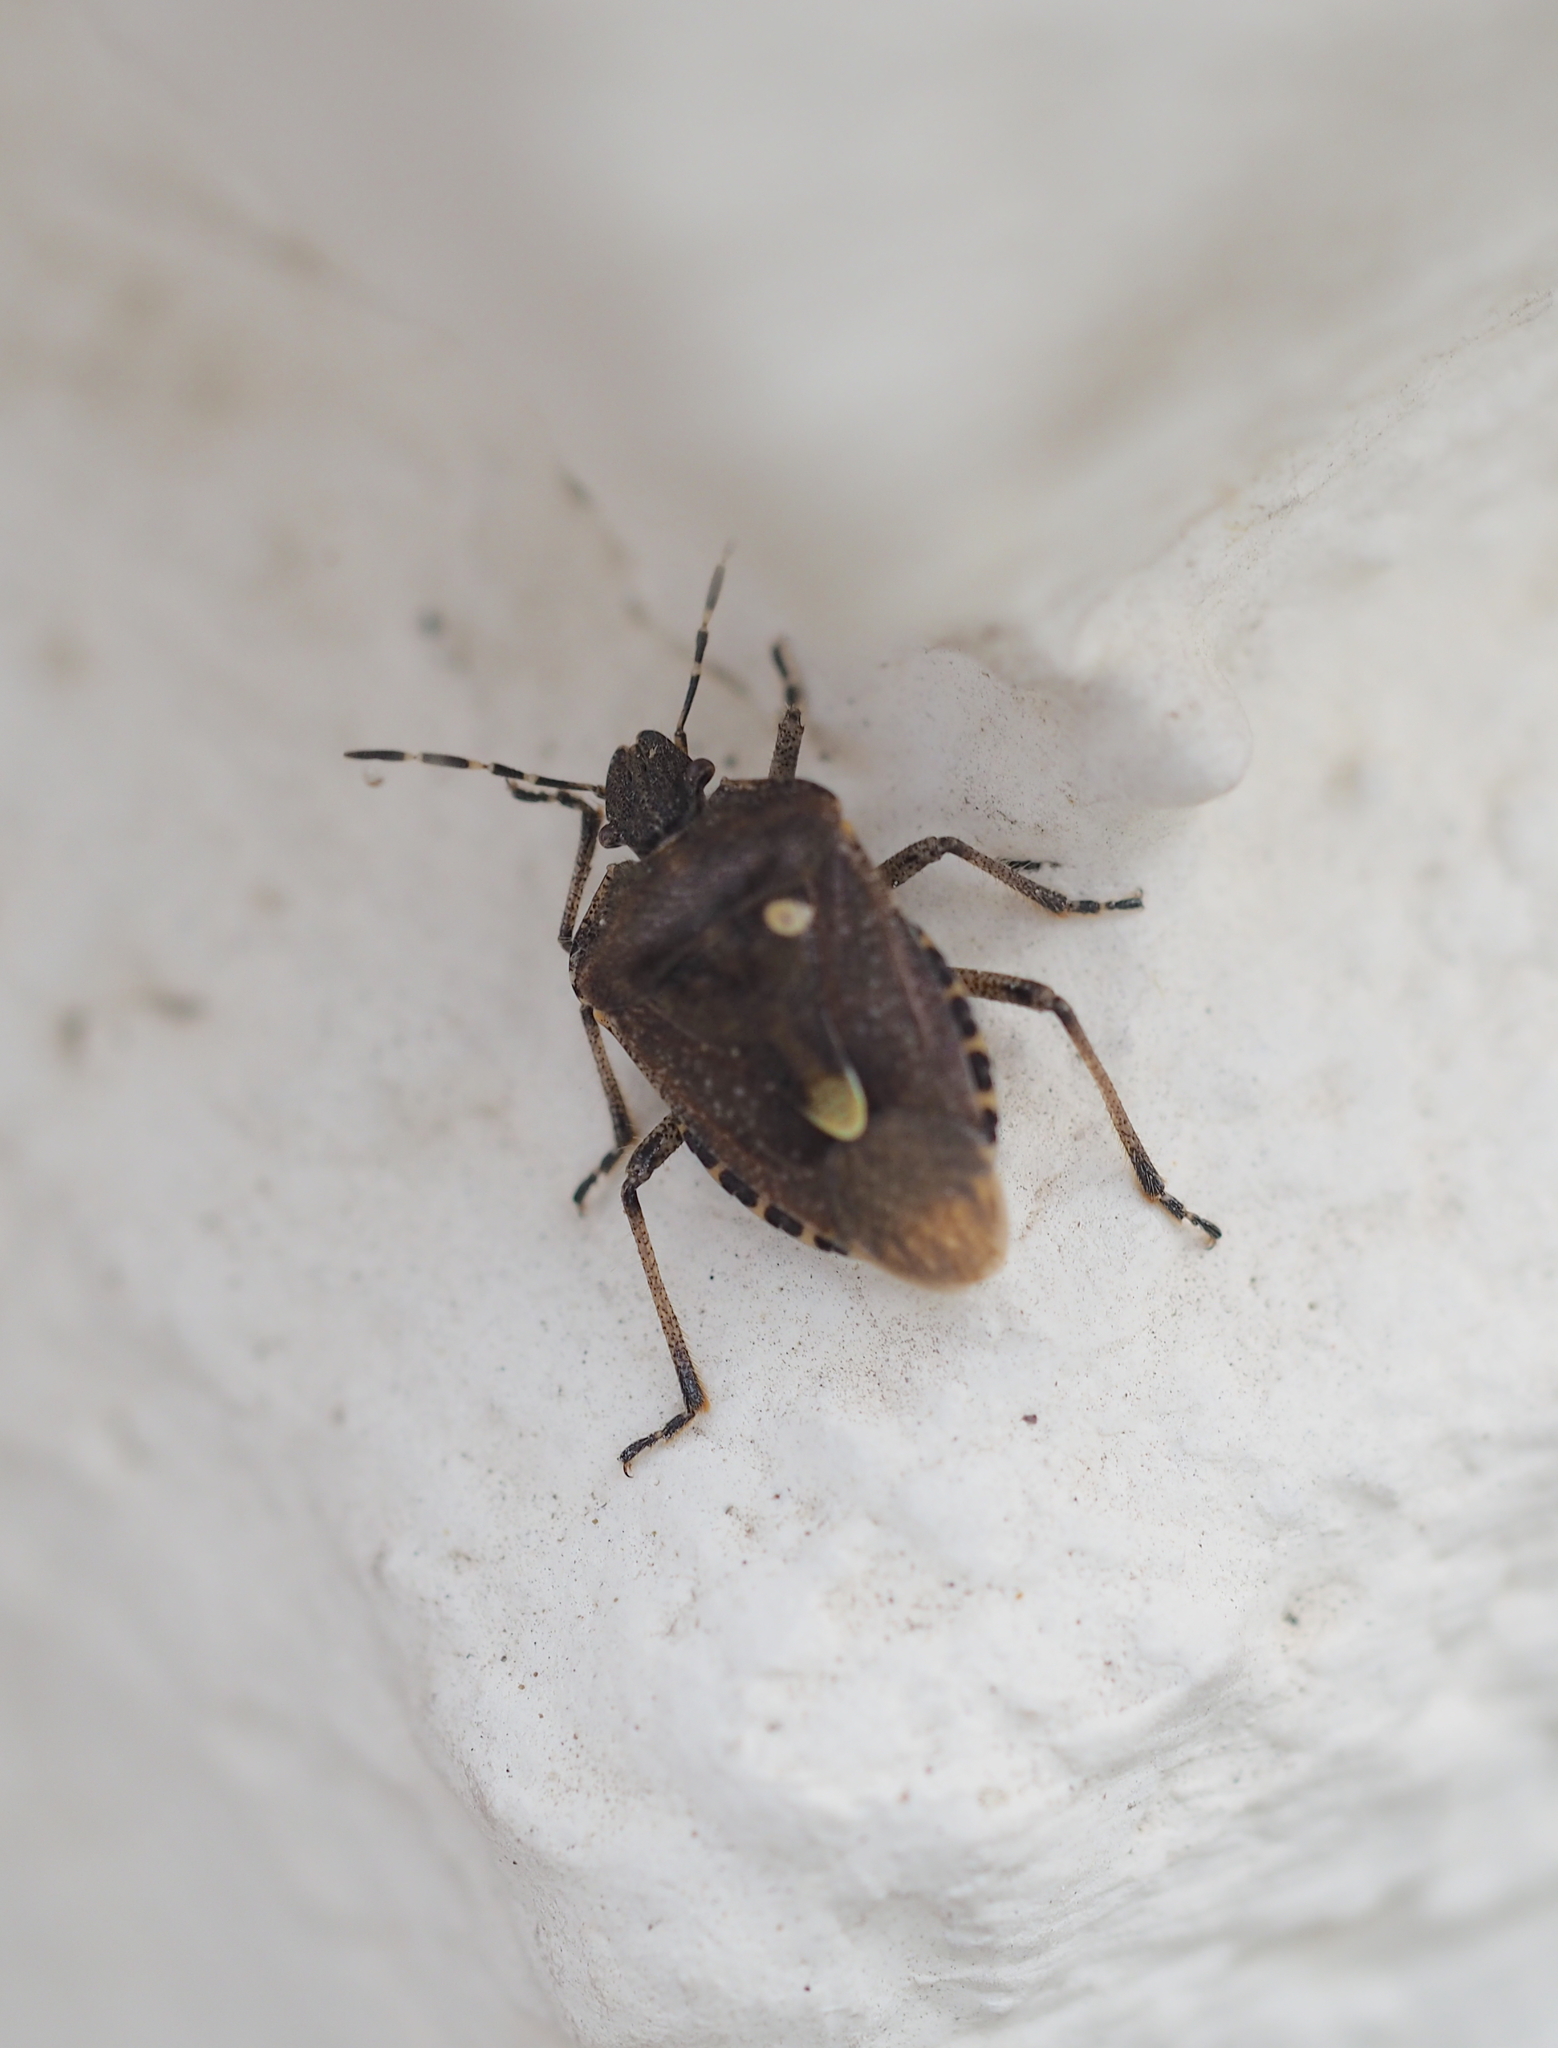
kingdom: Animalia
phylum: Arthropoda
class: Insecta
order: Hemiptera
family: Pentatomidae
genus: Dolycoris
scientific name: Dolycoris baccarum
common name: Sloe bug
